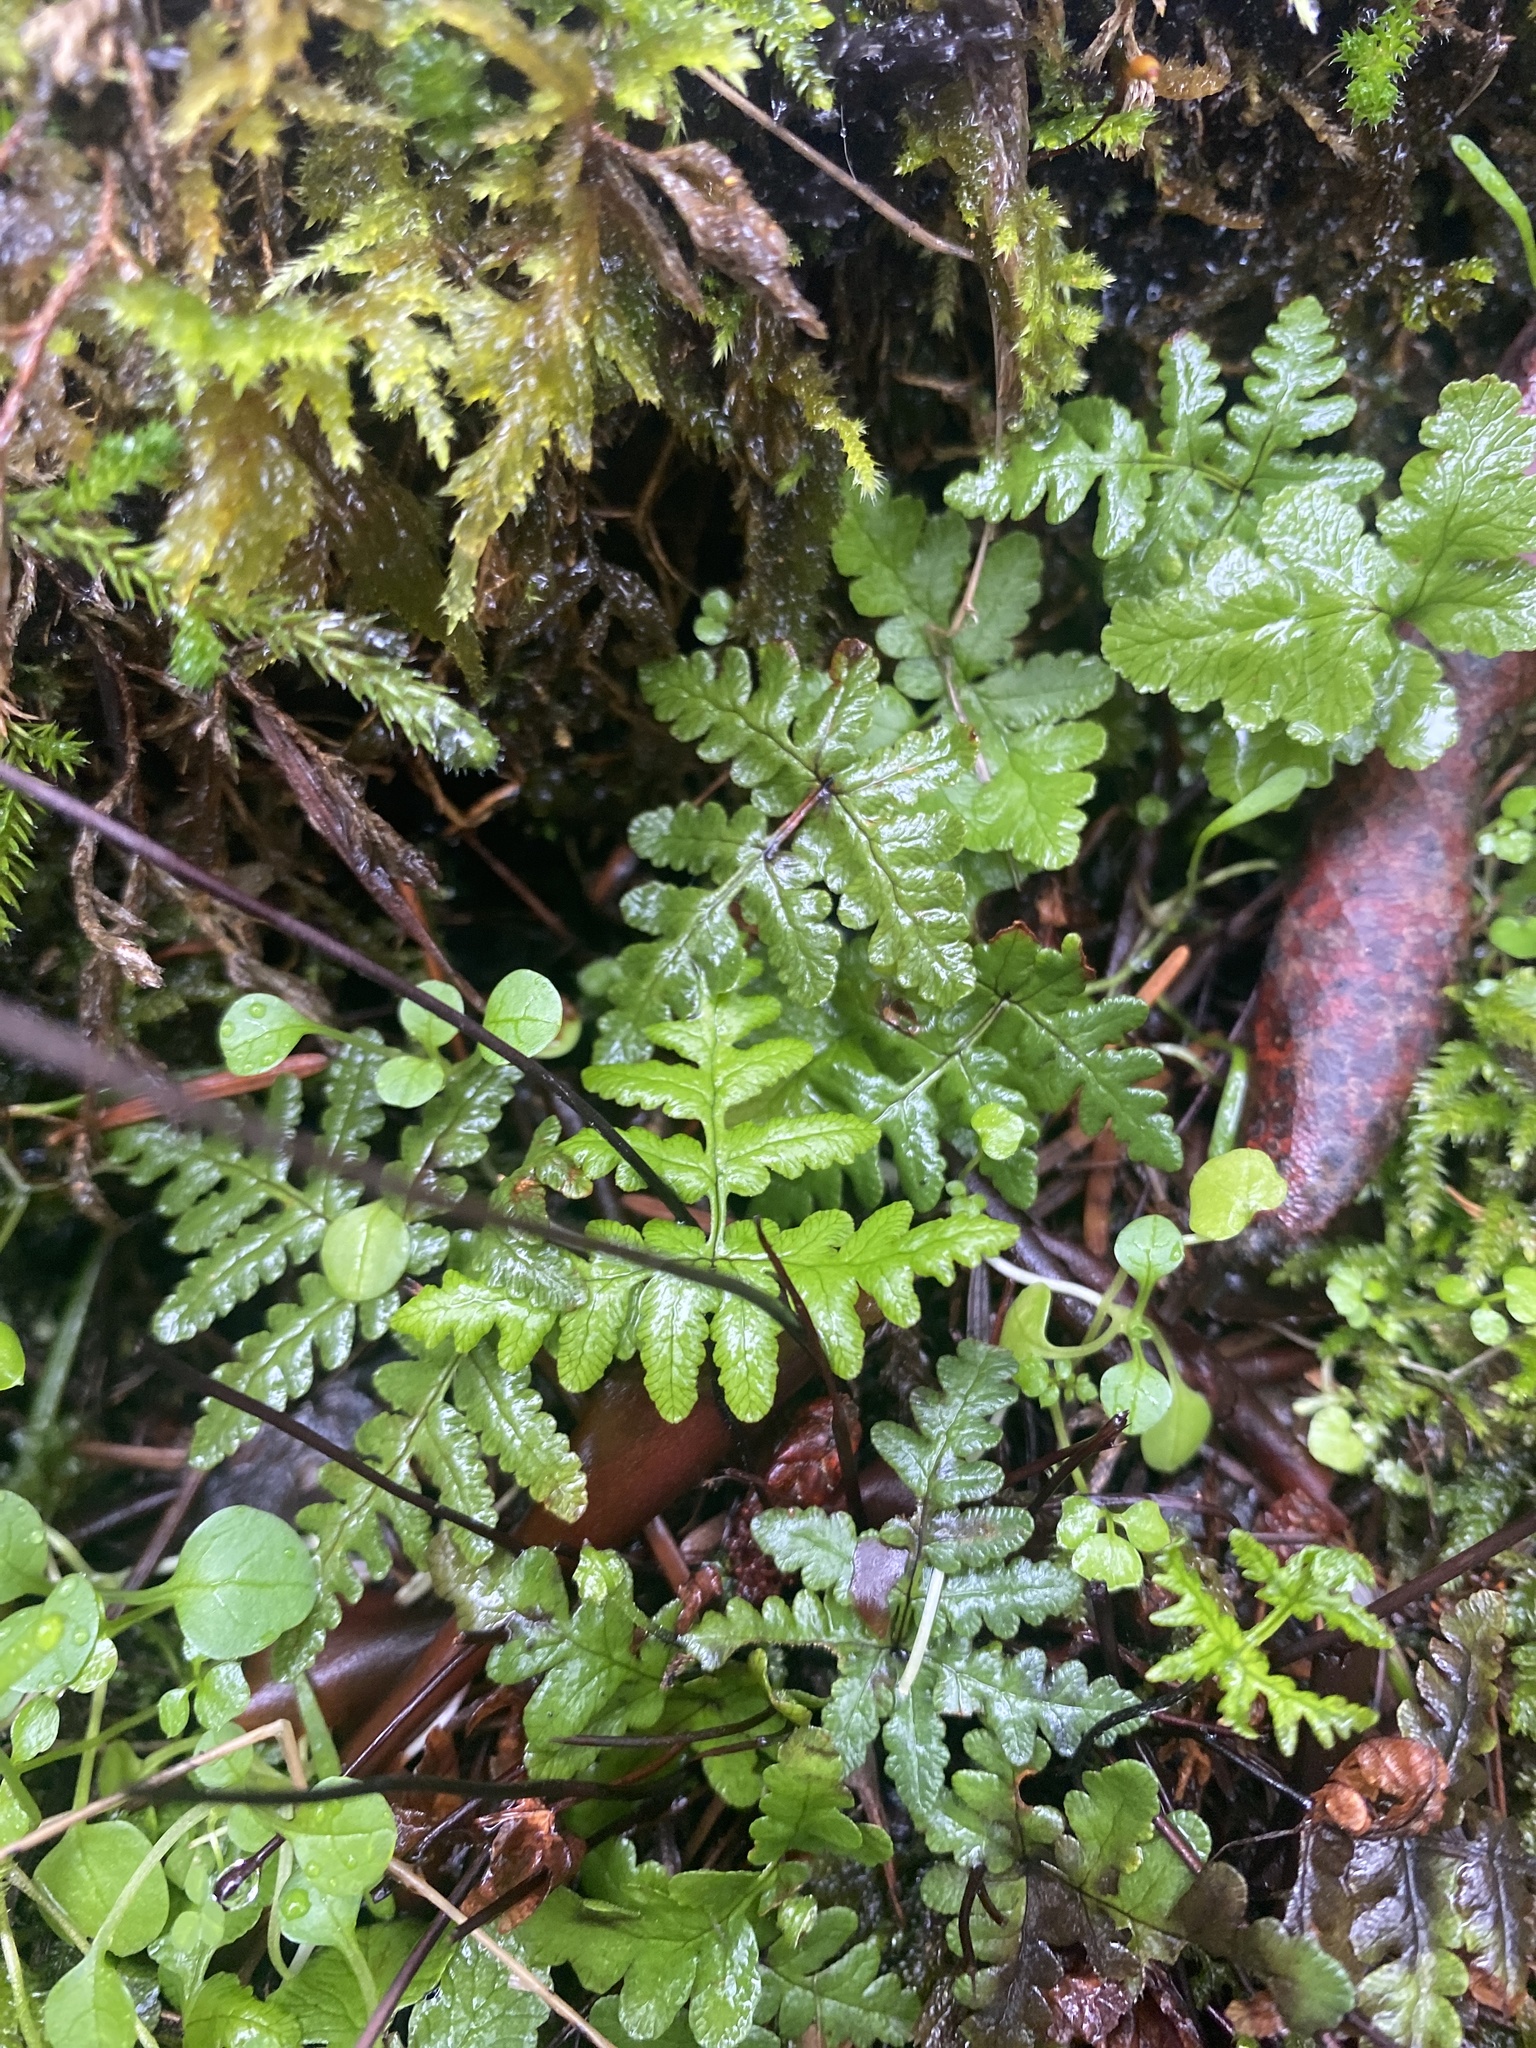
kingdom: Plantae
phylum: Tracheophyta
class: Polypodiopsida
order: Polypodiales
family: Pteridaceae
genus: Pentagramma
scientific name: Pentagramma triangularis
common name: Gold fern
